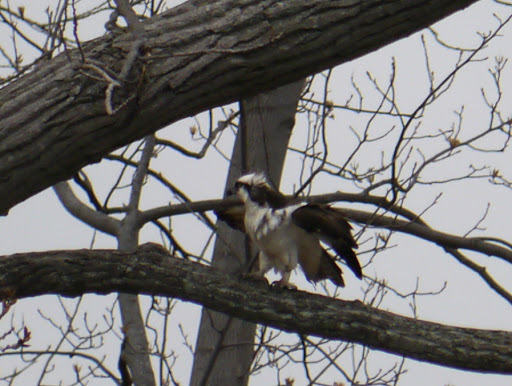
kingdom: Animalia
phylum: Chordata
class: Aves
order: Accipitriformes
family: Pandionidae
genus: Pandion
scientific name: Pandion haliaetus
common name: Osprey
